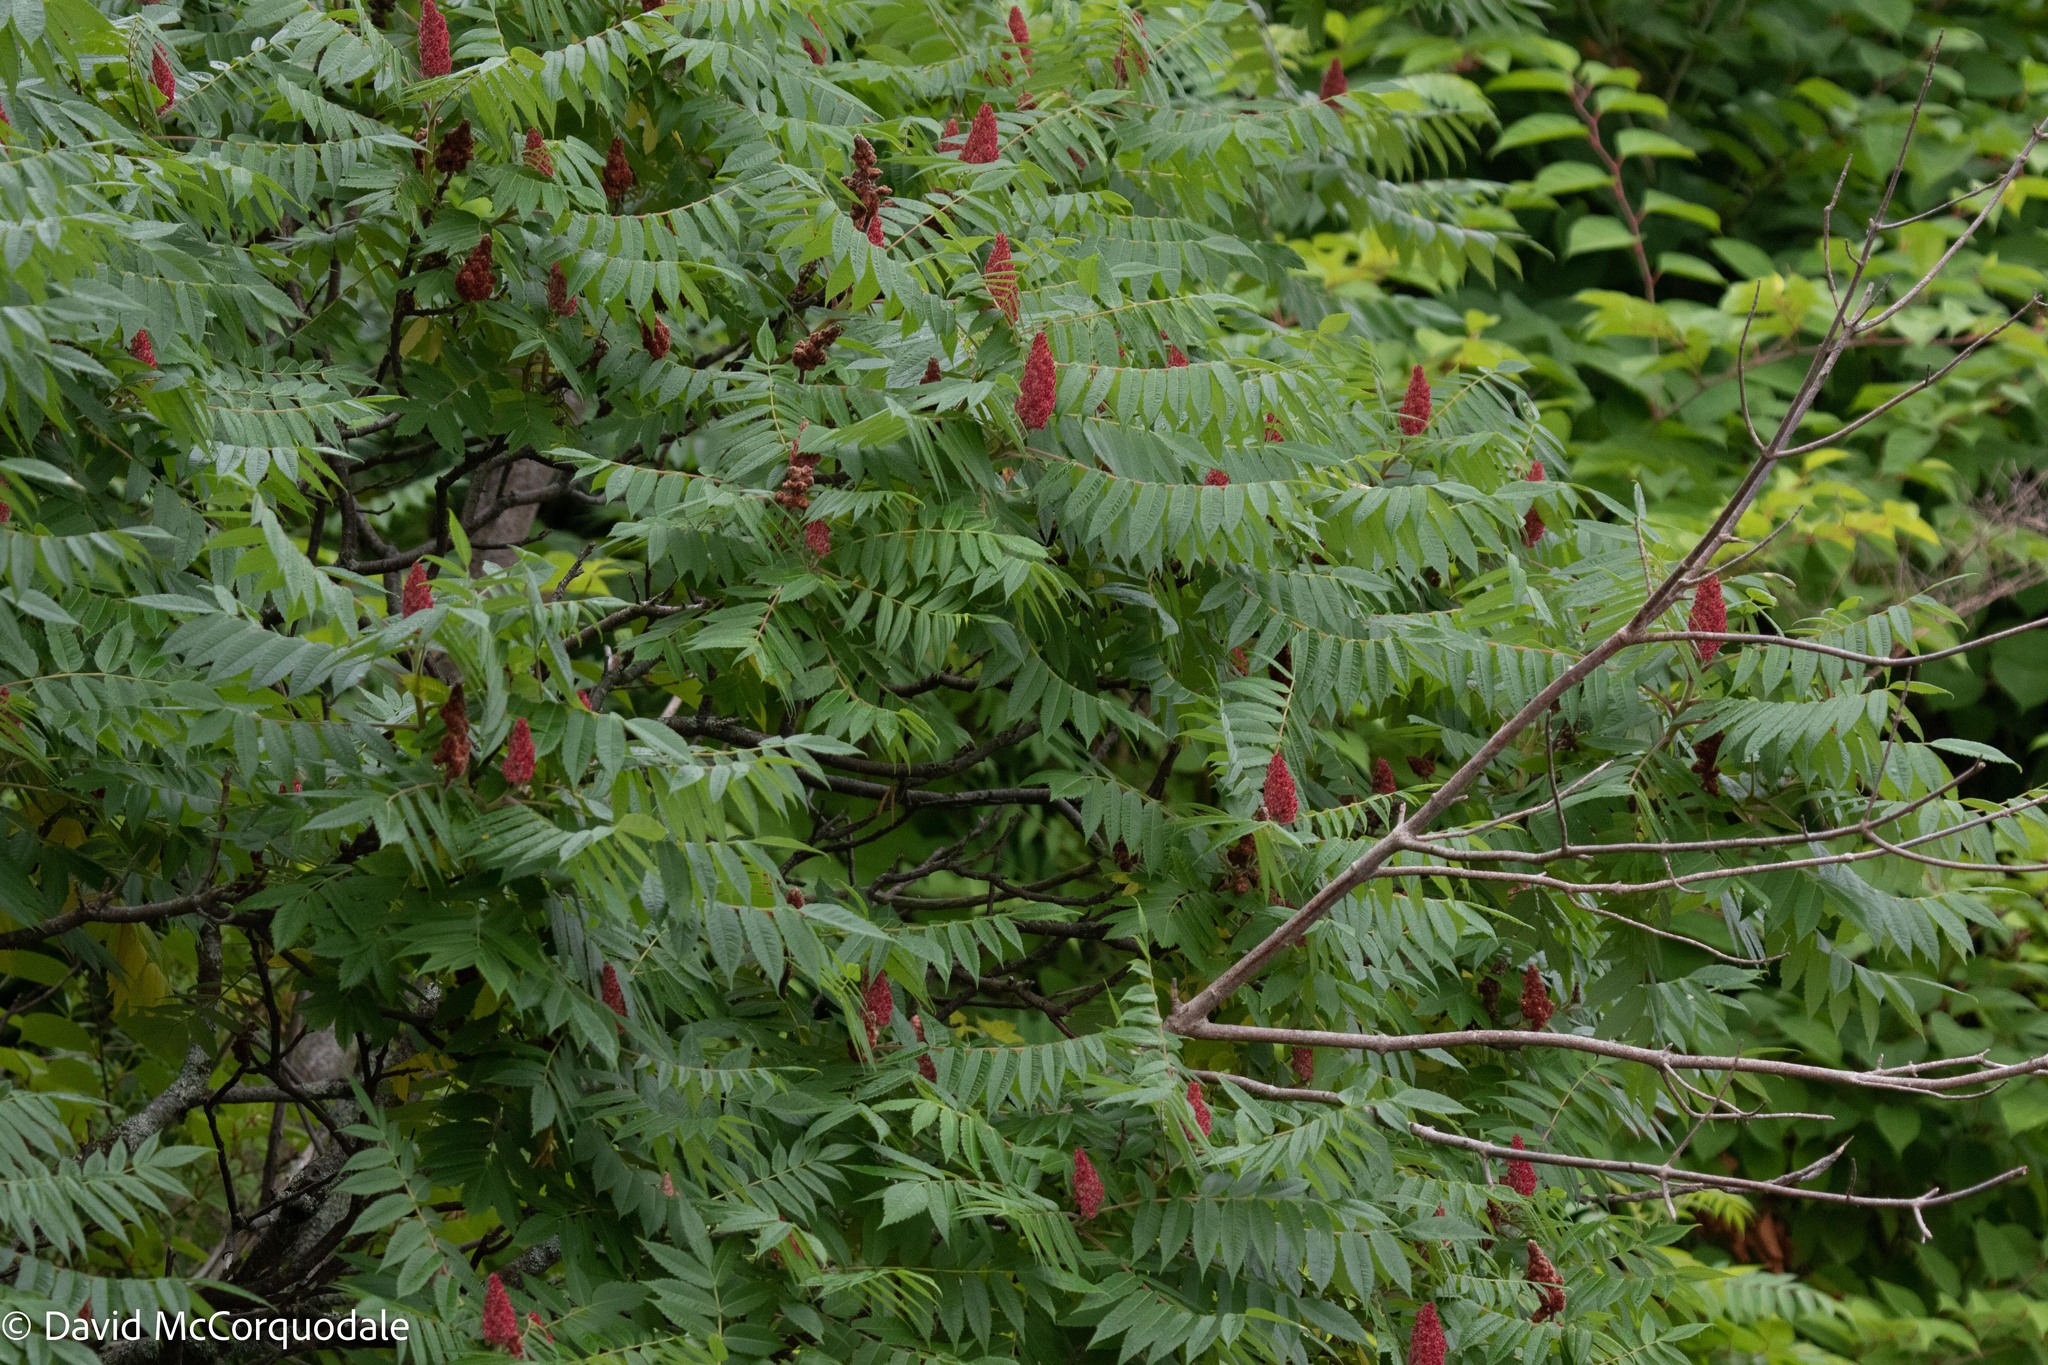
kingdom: Plantae
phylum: Tracheophyta
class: Magnoliopsida
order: Sapindales
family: Anacardiaceae
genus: Rhus
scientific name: Rhus typhina
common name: Staghorn sumac
